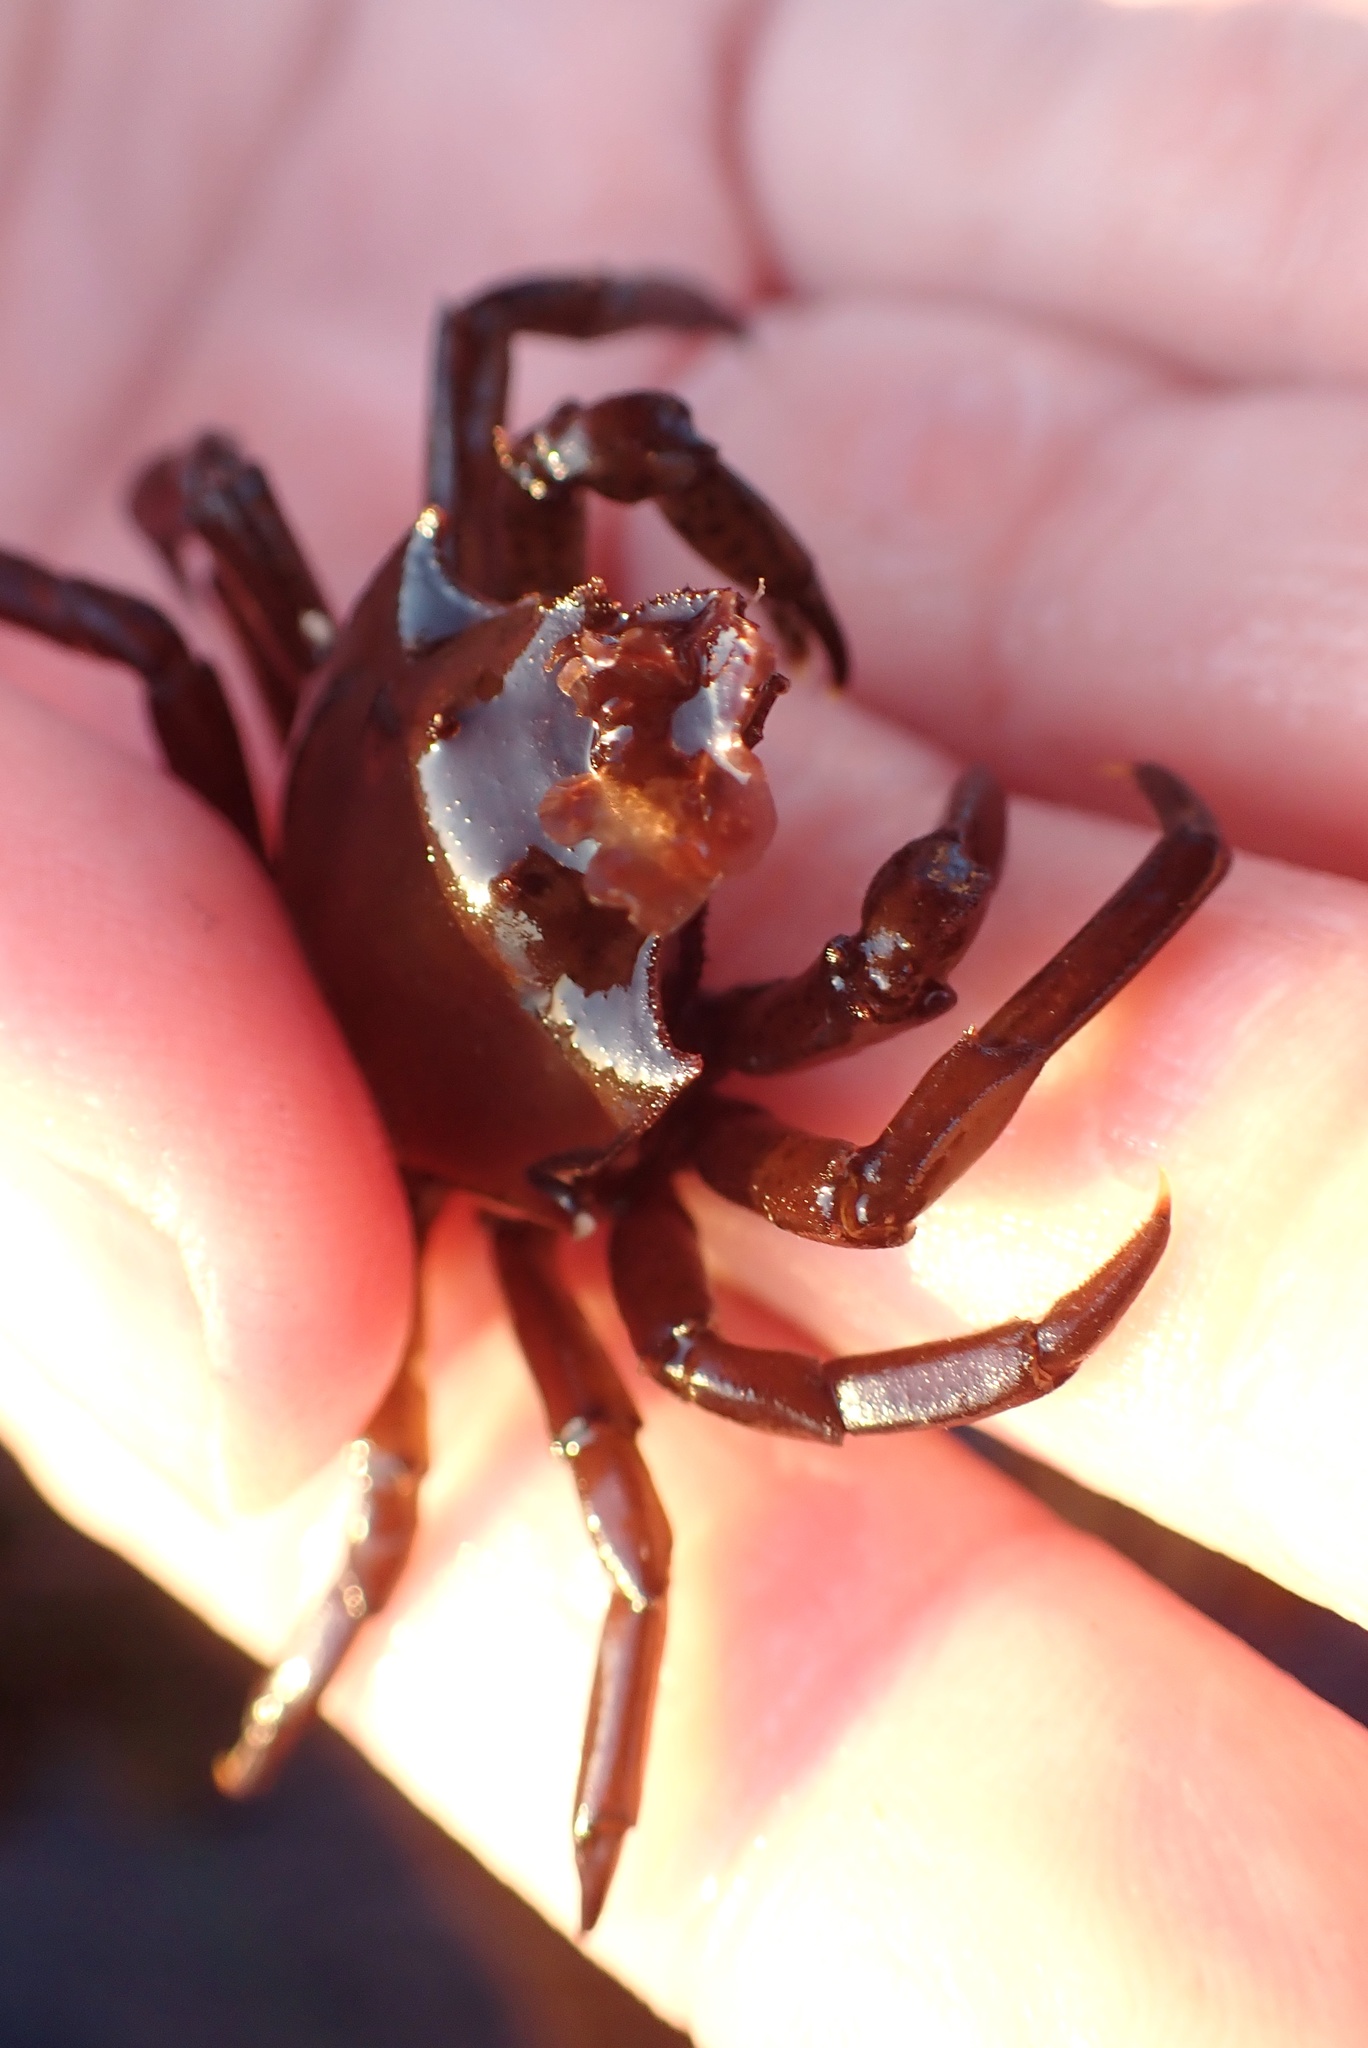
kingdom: Animalia
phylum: Arthropoda
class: Malacostraca
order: Decapoda
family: Epialtidae
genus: Pugettia
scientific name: Pugettia producta
